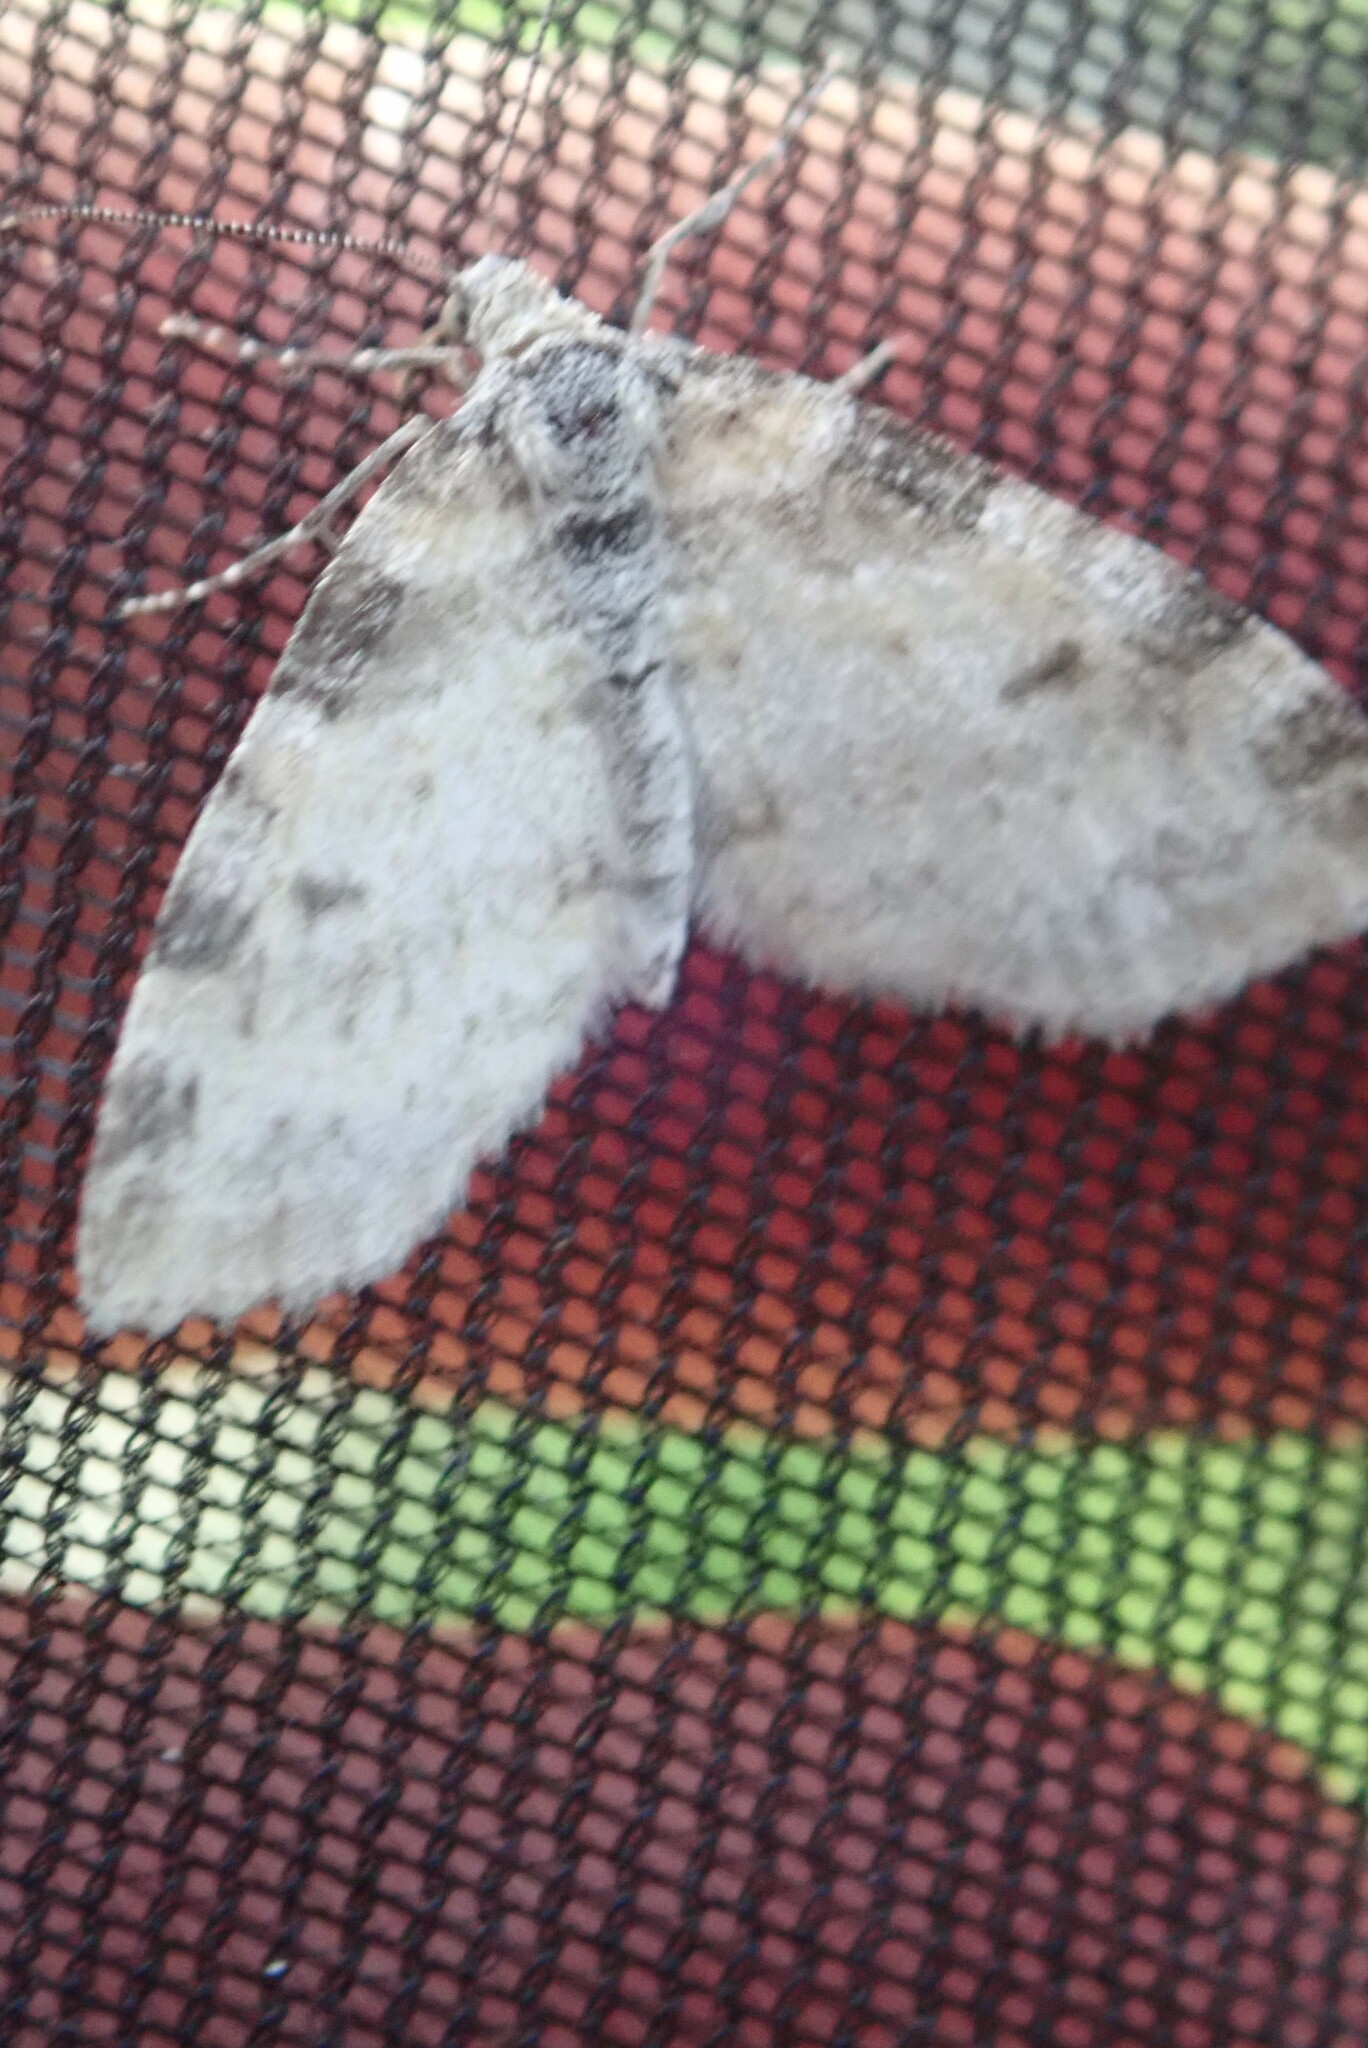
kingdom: Animalia
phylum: Arthropoda
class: Insecta
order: Lepidoptera
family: Geometridae
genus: Lobophora
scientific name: Lobophora nivigerata
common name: Powdered bigwing
